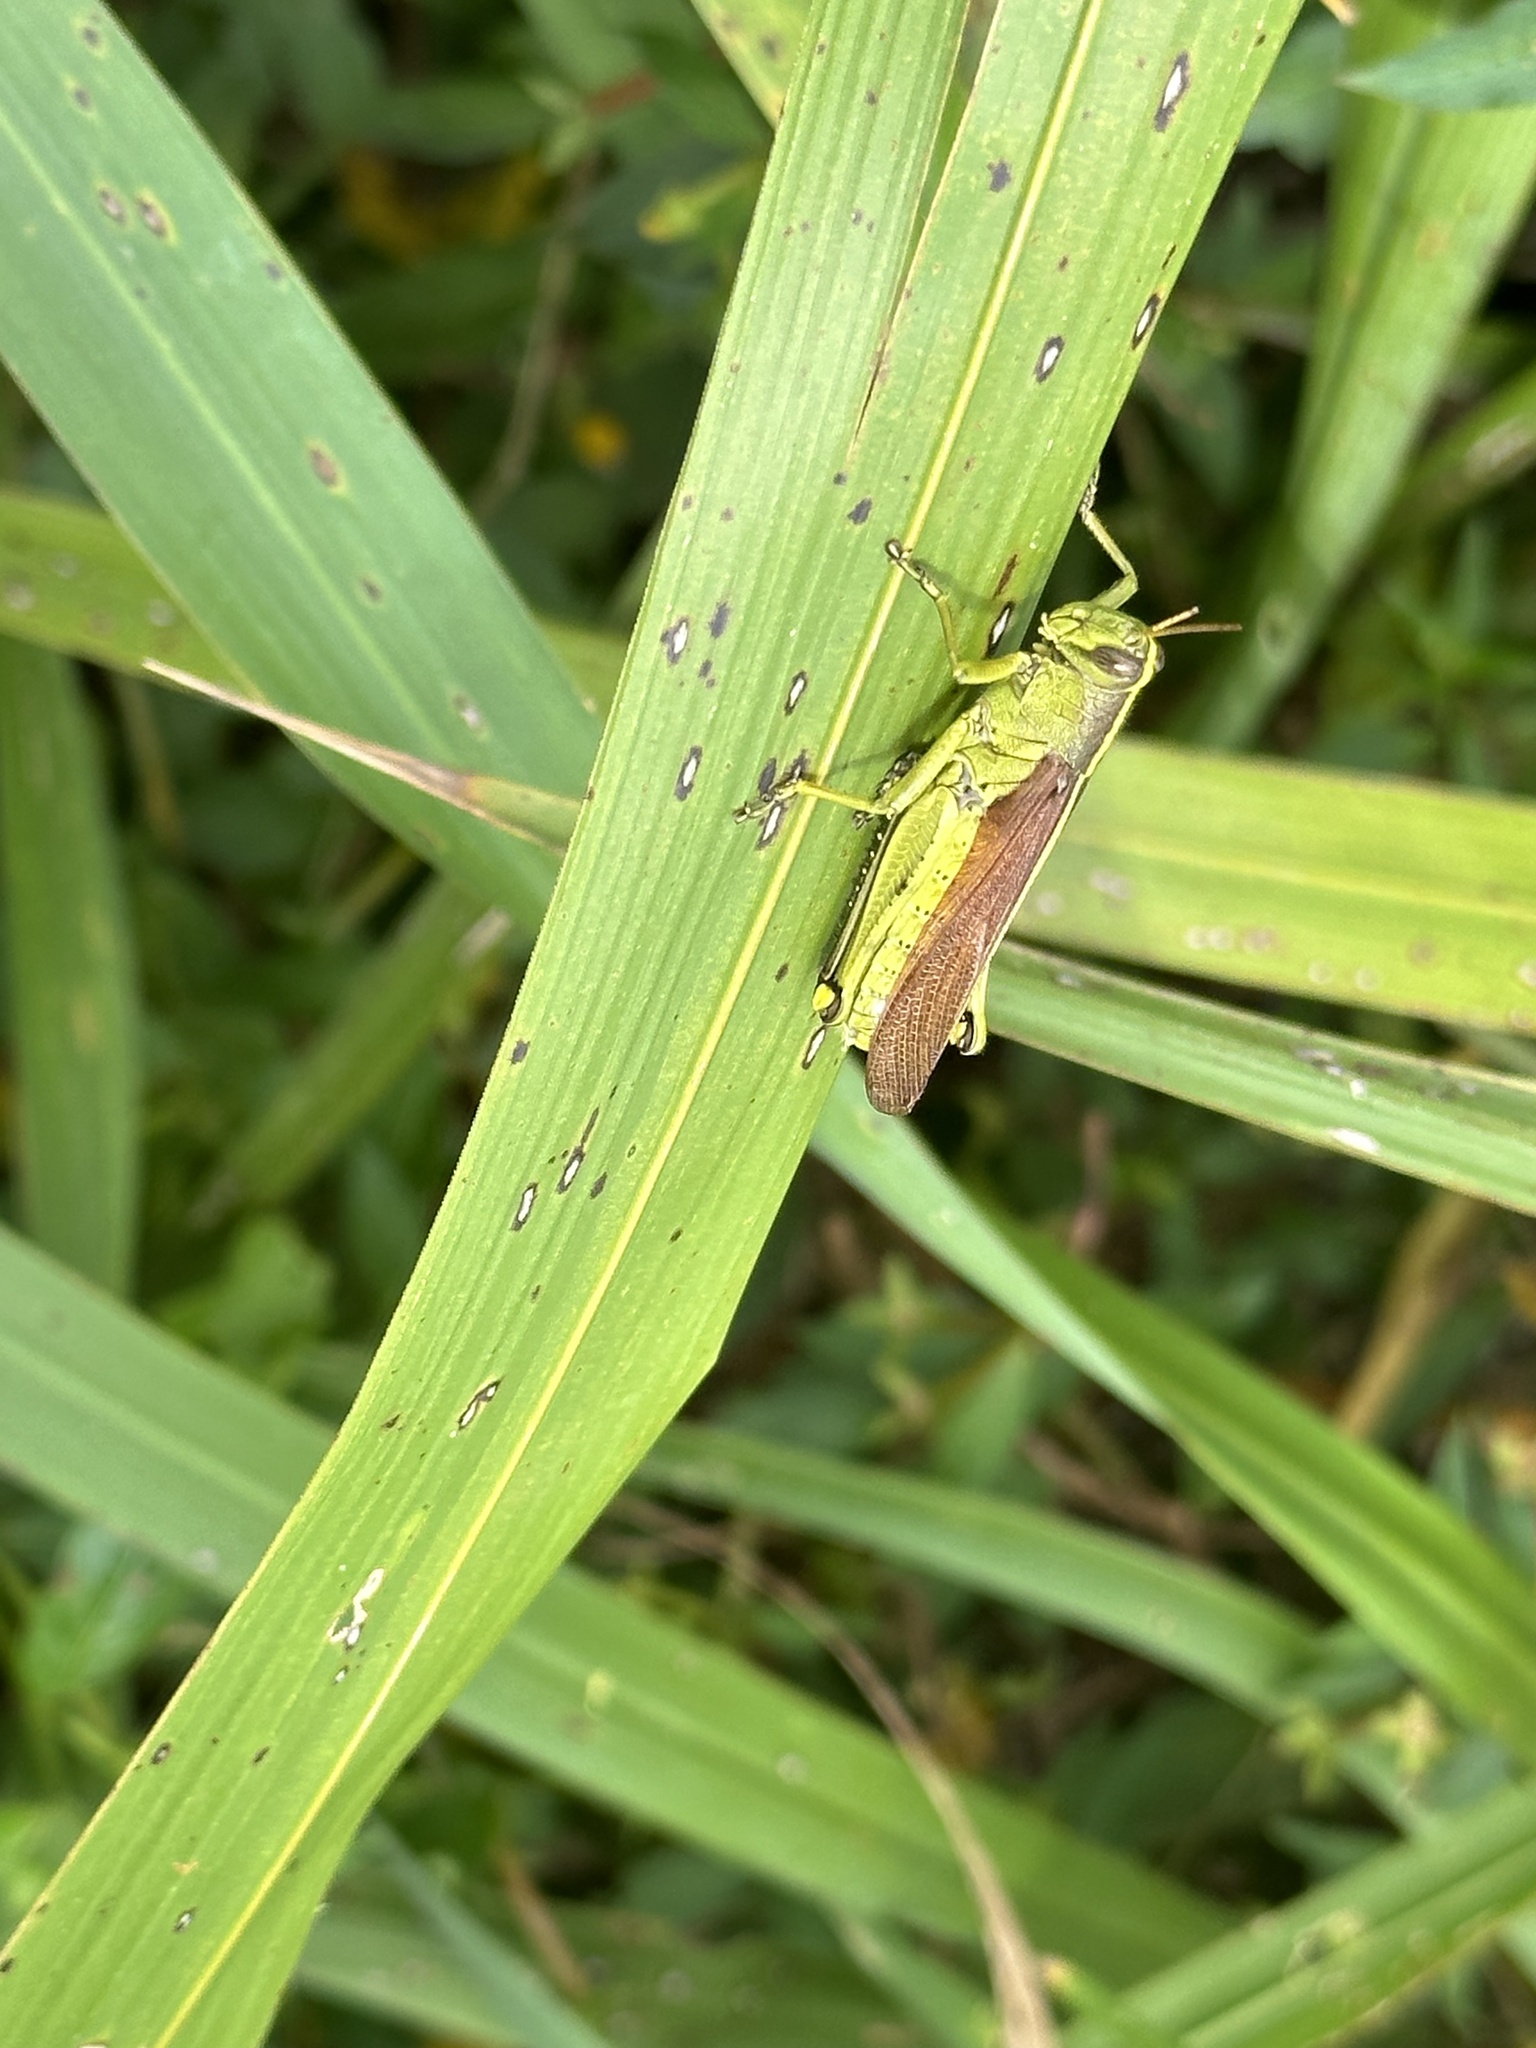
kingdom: Animalia
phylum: Arthropoda
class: Insecta
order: Orthoptera
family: Acrididae
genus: Schistocerca
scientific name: Schistocerca obscura
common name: Obscure bird grasshopper
